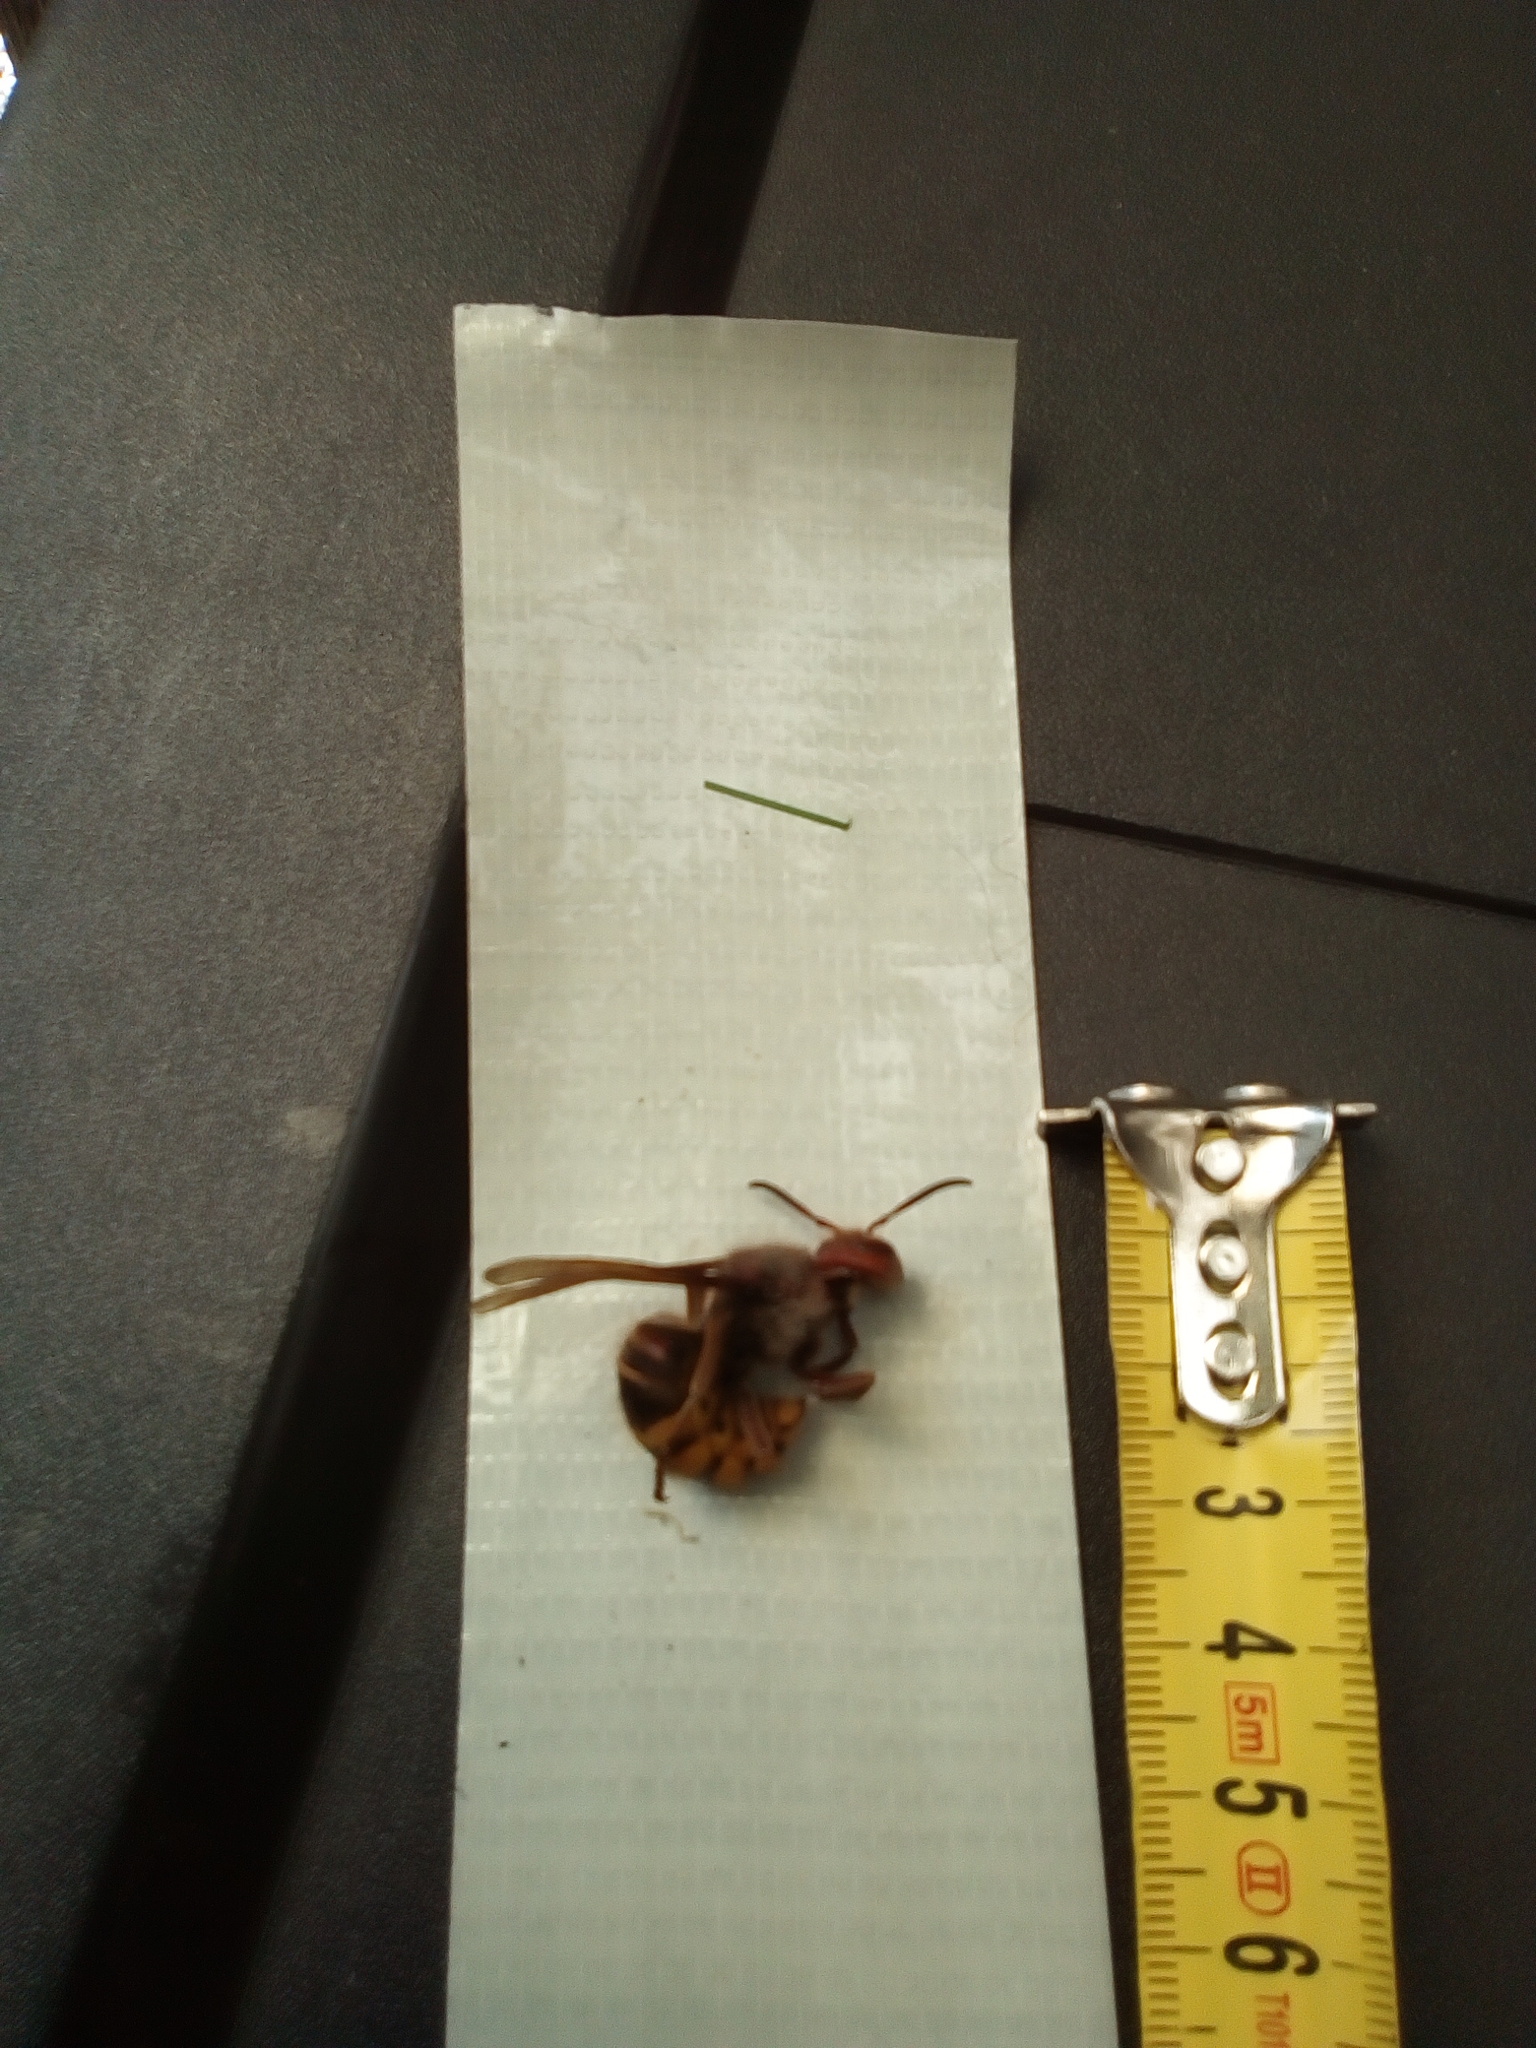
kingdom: Animalia
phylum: Arthropoda
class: Insecta
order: Hymenoptera
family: Vespidae
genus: Vespa
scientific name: Vespa crabro
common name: Hornet
